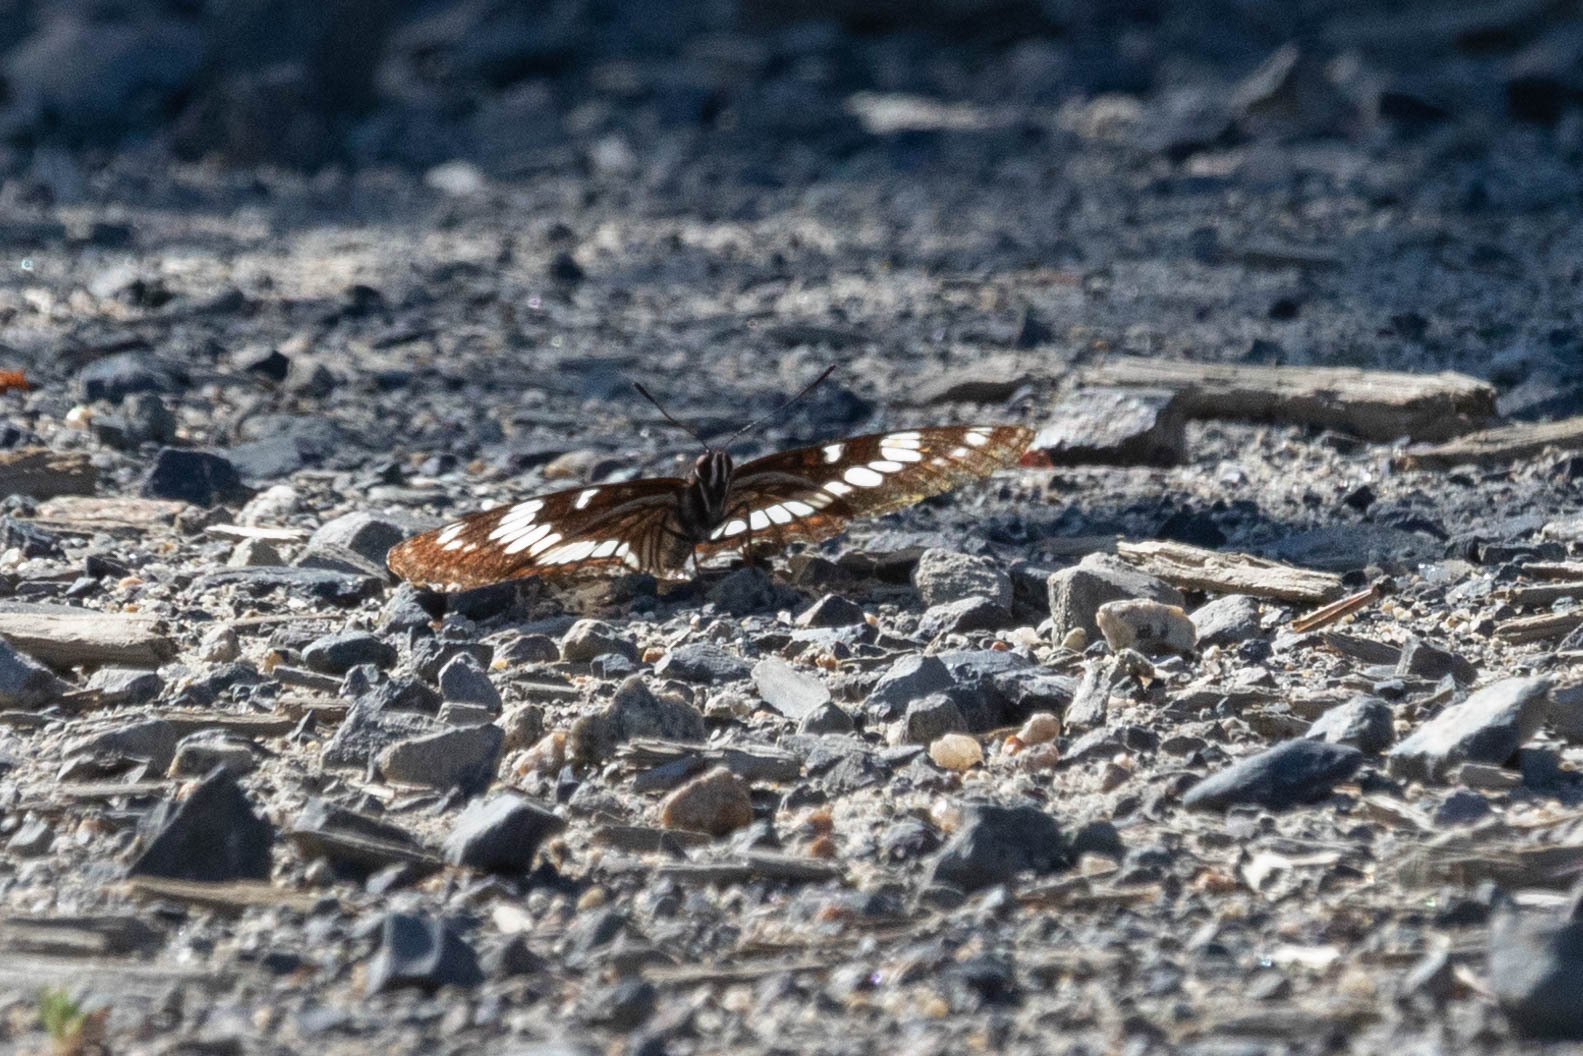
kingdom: Animalia
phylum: Arthropoda
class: Insecta
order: Lepidoptera
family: Nymphalidae
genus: Limenitis
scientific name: Limenitis lorquini
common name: Lorquin's admiral
